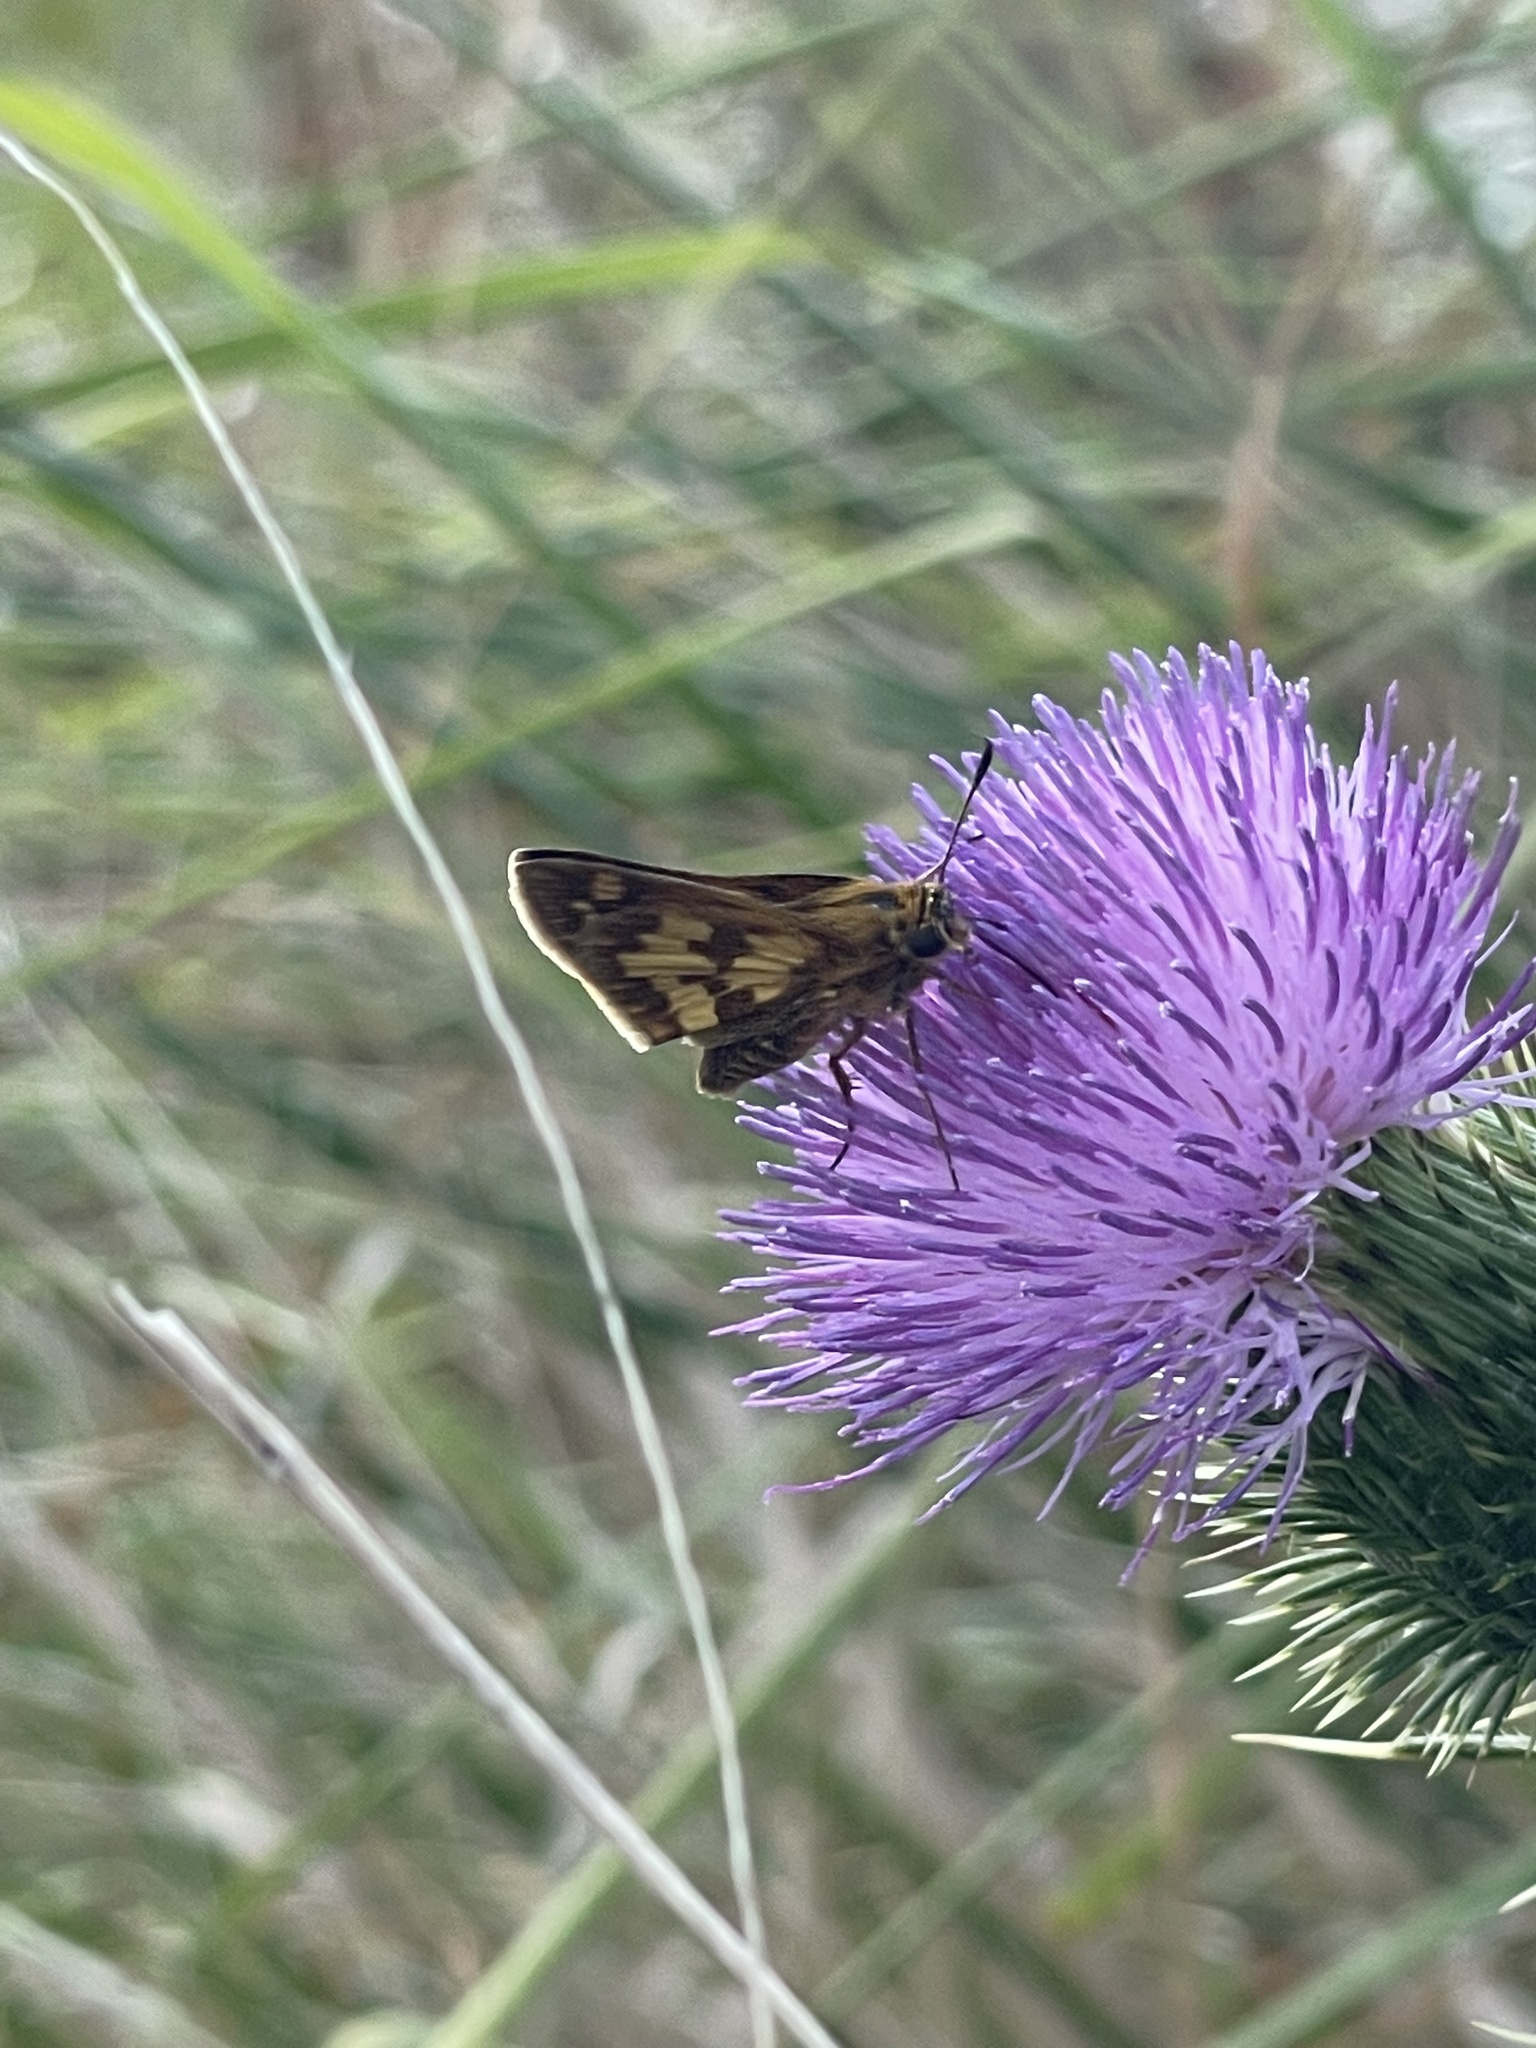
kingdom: Animalia
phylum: Arthropoda
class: Insecta
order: Lepidoptera
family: Hesperiidae
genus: Polites
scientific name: Polites coras
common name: Peck's skipper
